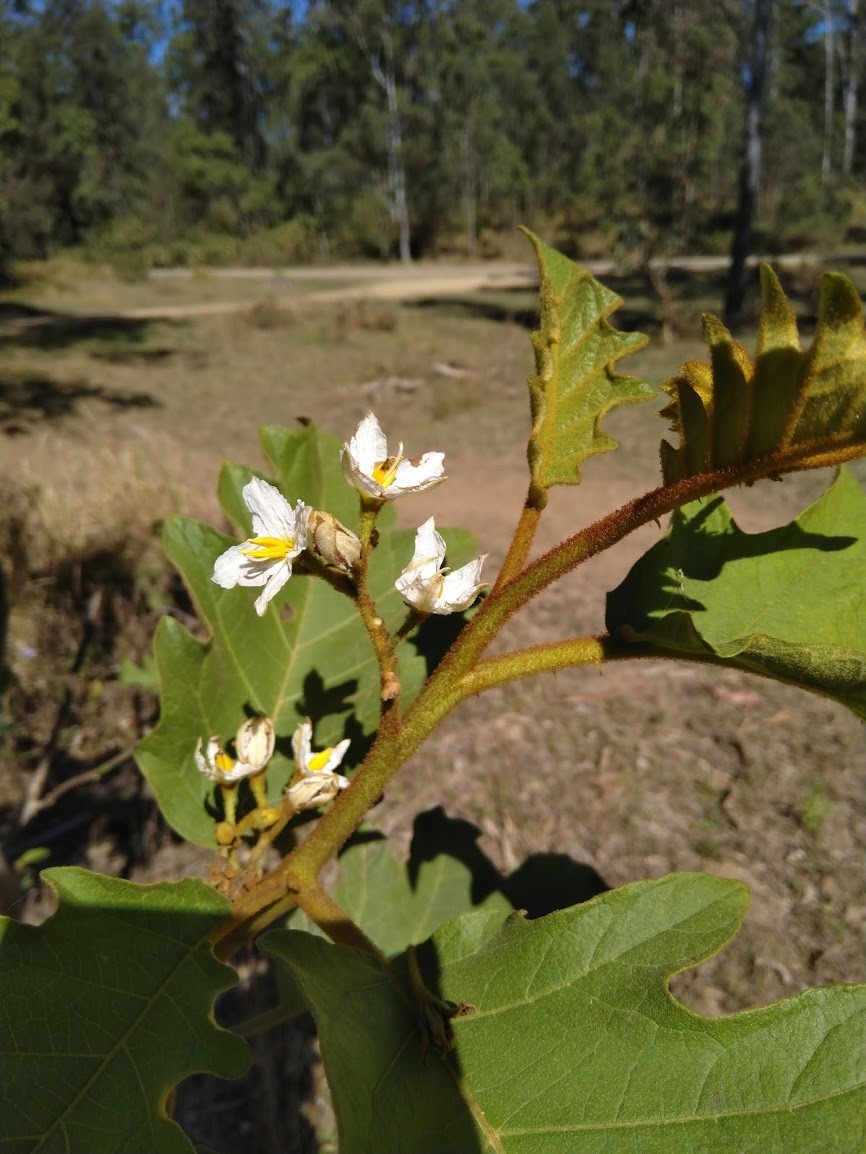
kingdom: Plantae
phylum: Tracheophyta
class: Magnoliopsida
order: Solanales
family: Solanaceae
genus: Solanum
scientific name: Solanum chrysotrichum
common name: Nightshade
